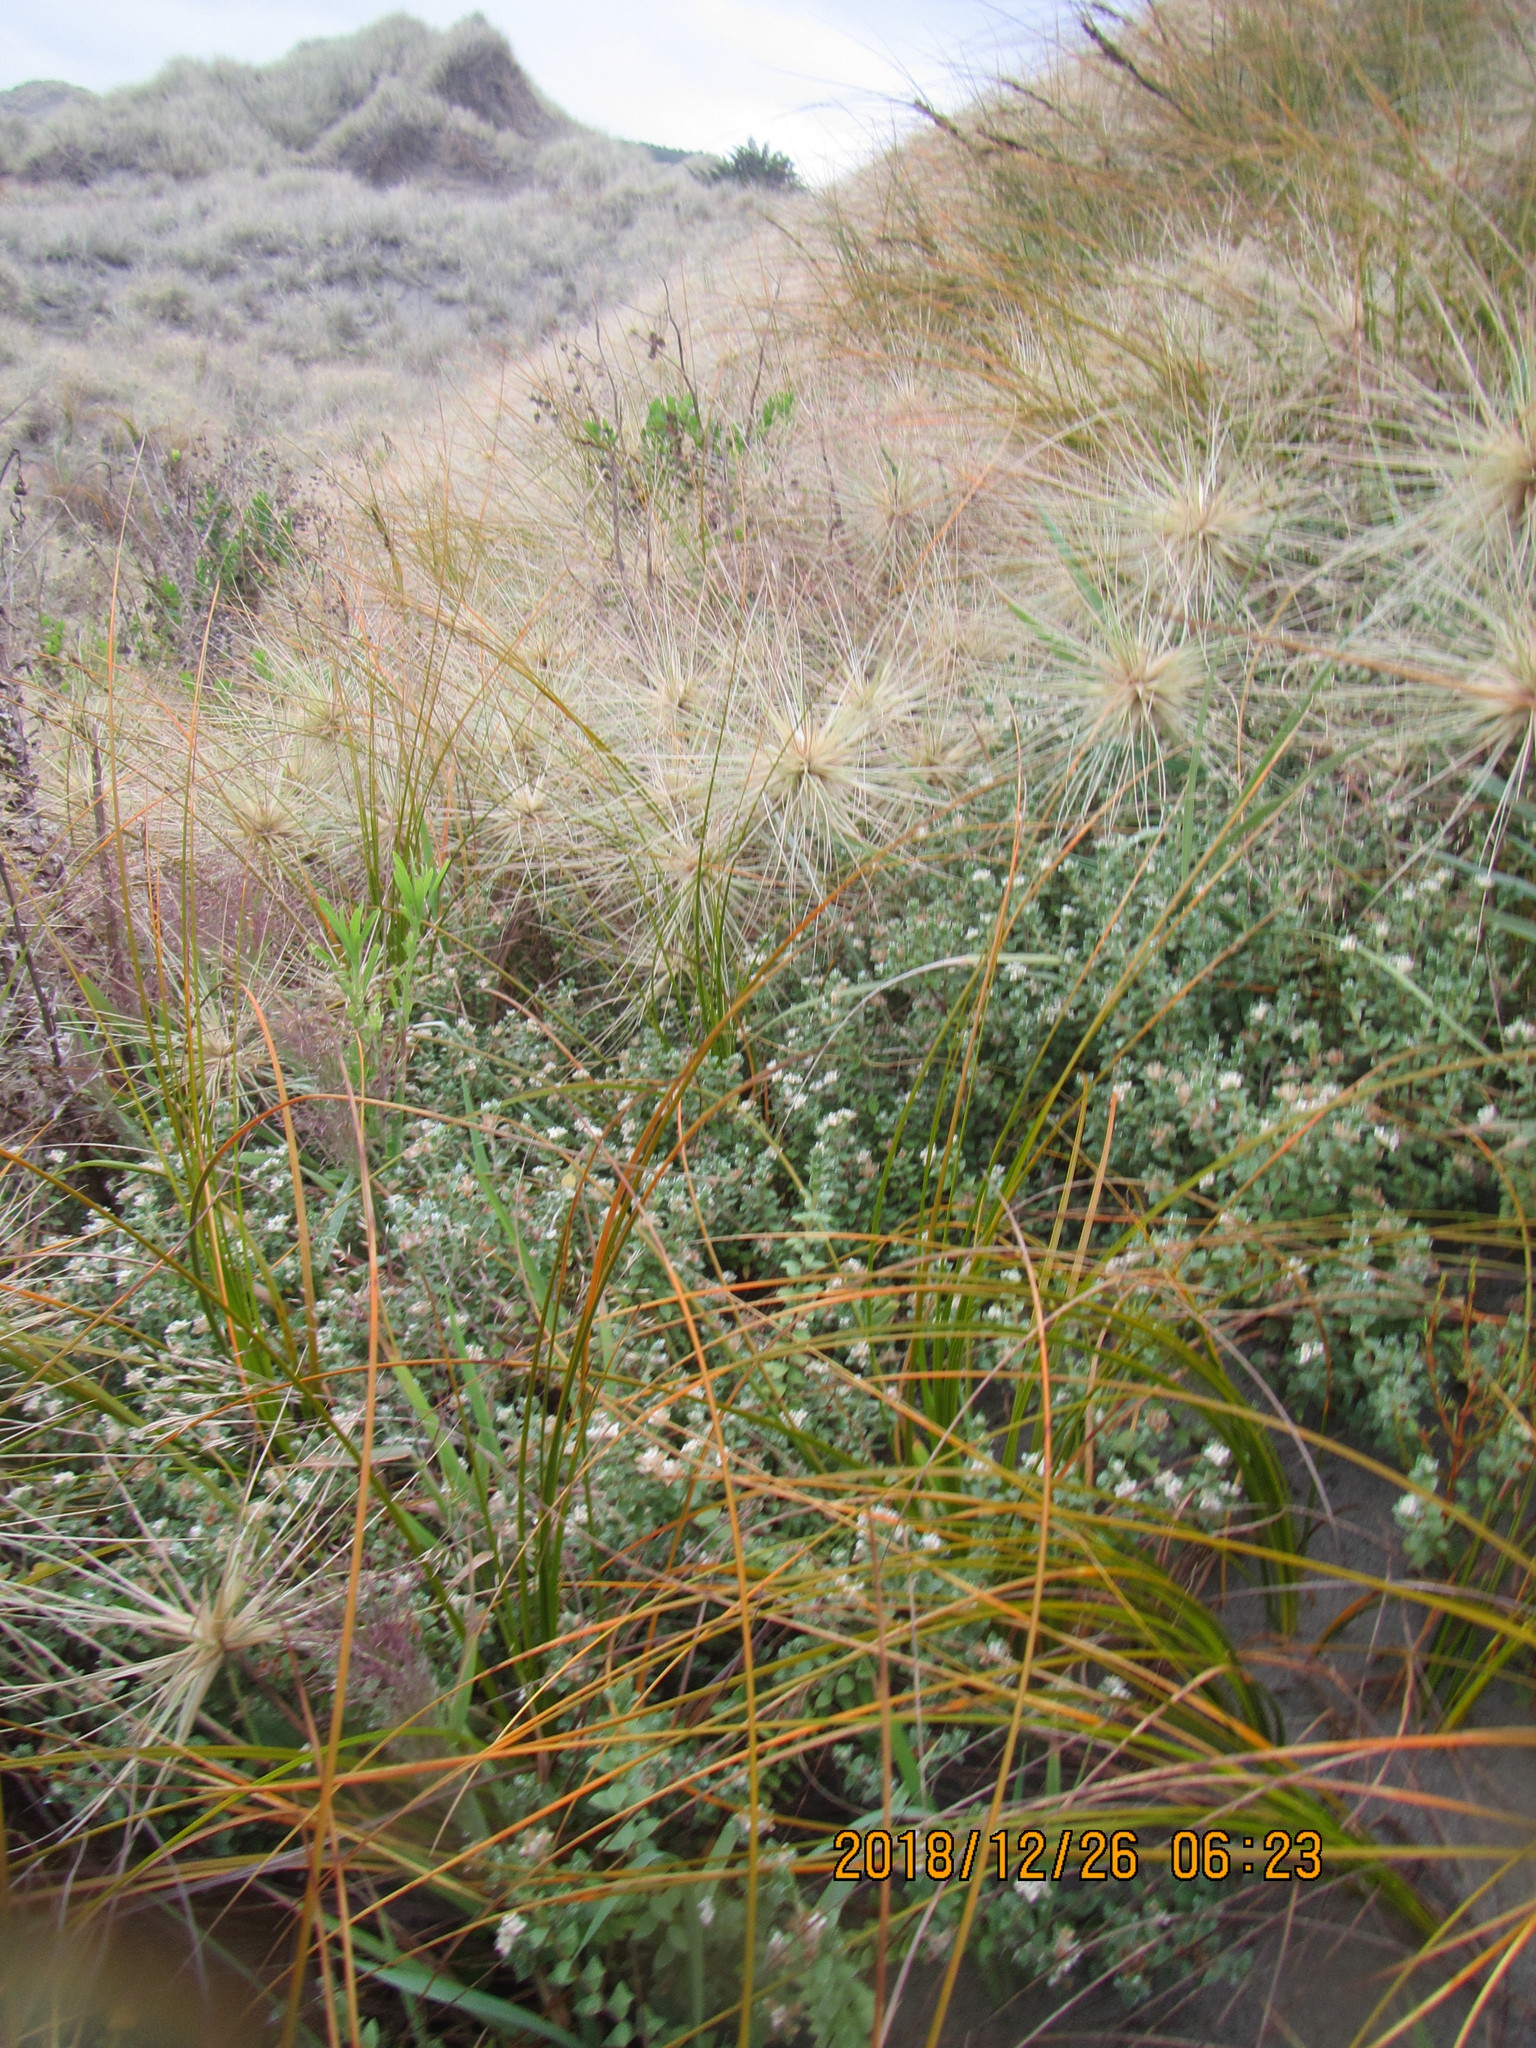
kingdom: Plantae
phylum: Tracheophyta
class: Magnoliopsida
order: Malvales
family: Thymelaeaceae
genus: Pimelea
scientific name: Pimelea villosa
